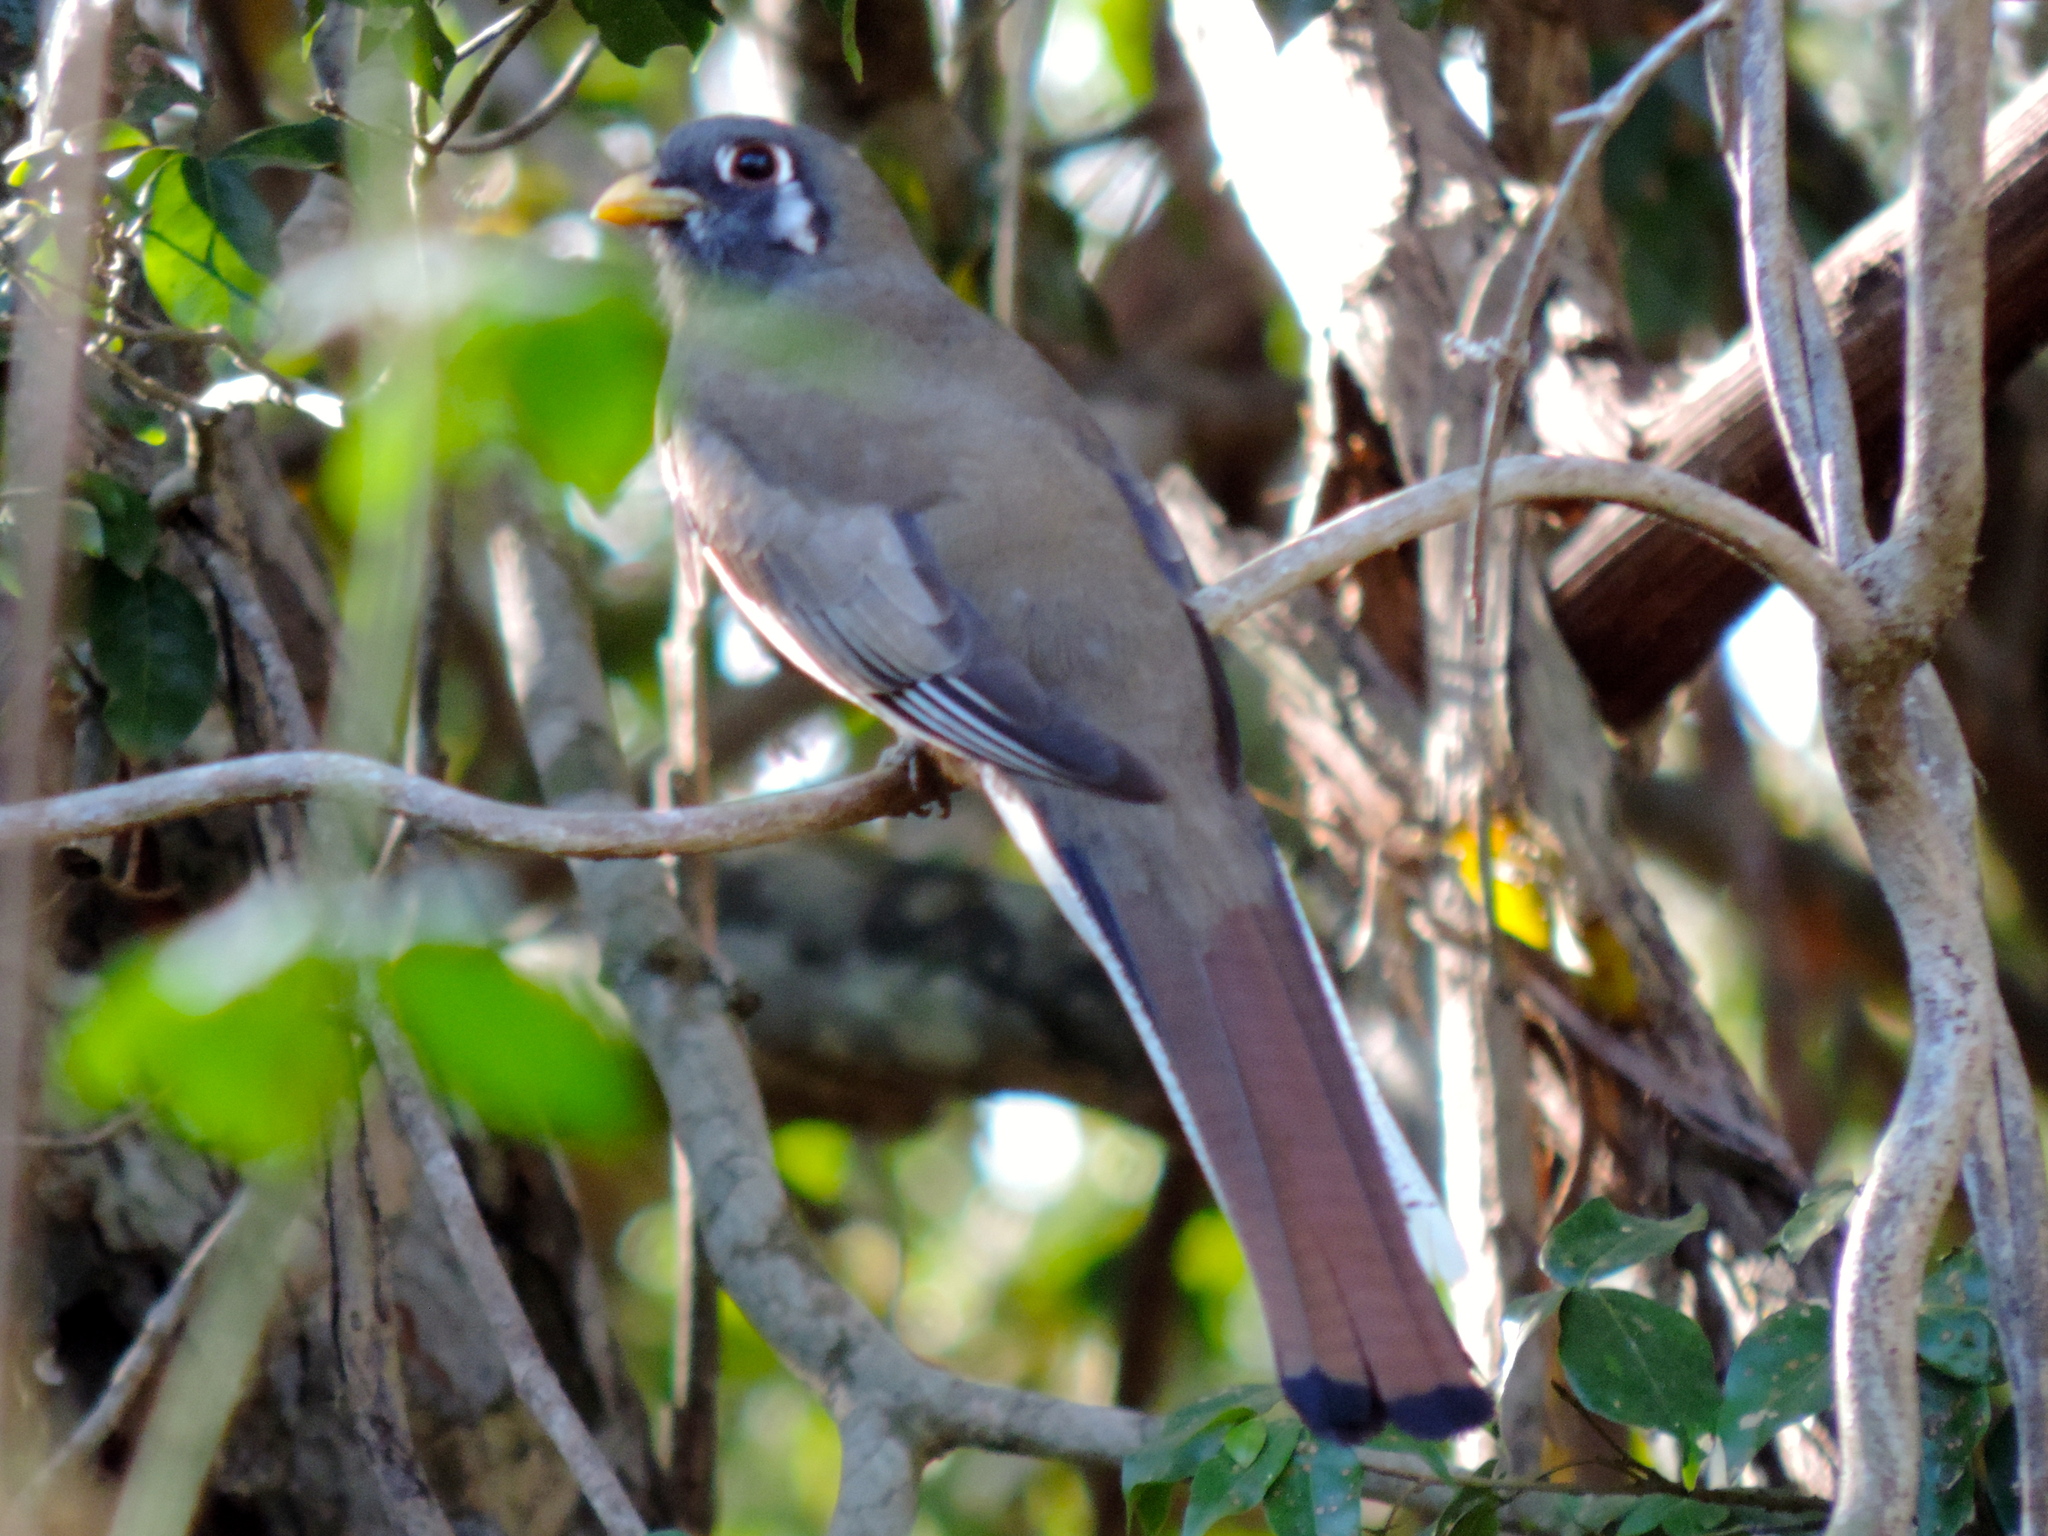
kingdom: Animalia
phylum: Chordata
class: Aves
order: Trogoniformes
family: Trogonidae
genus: Trogon
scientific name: Trogon elegans
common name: Elegant trogon
